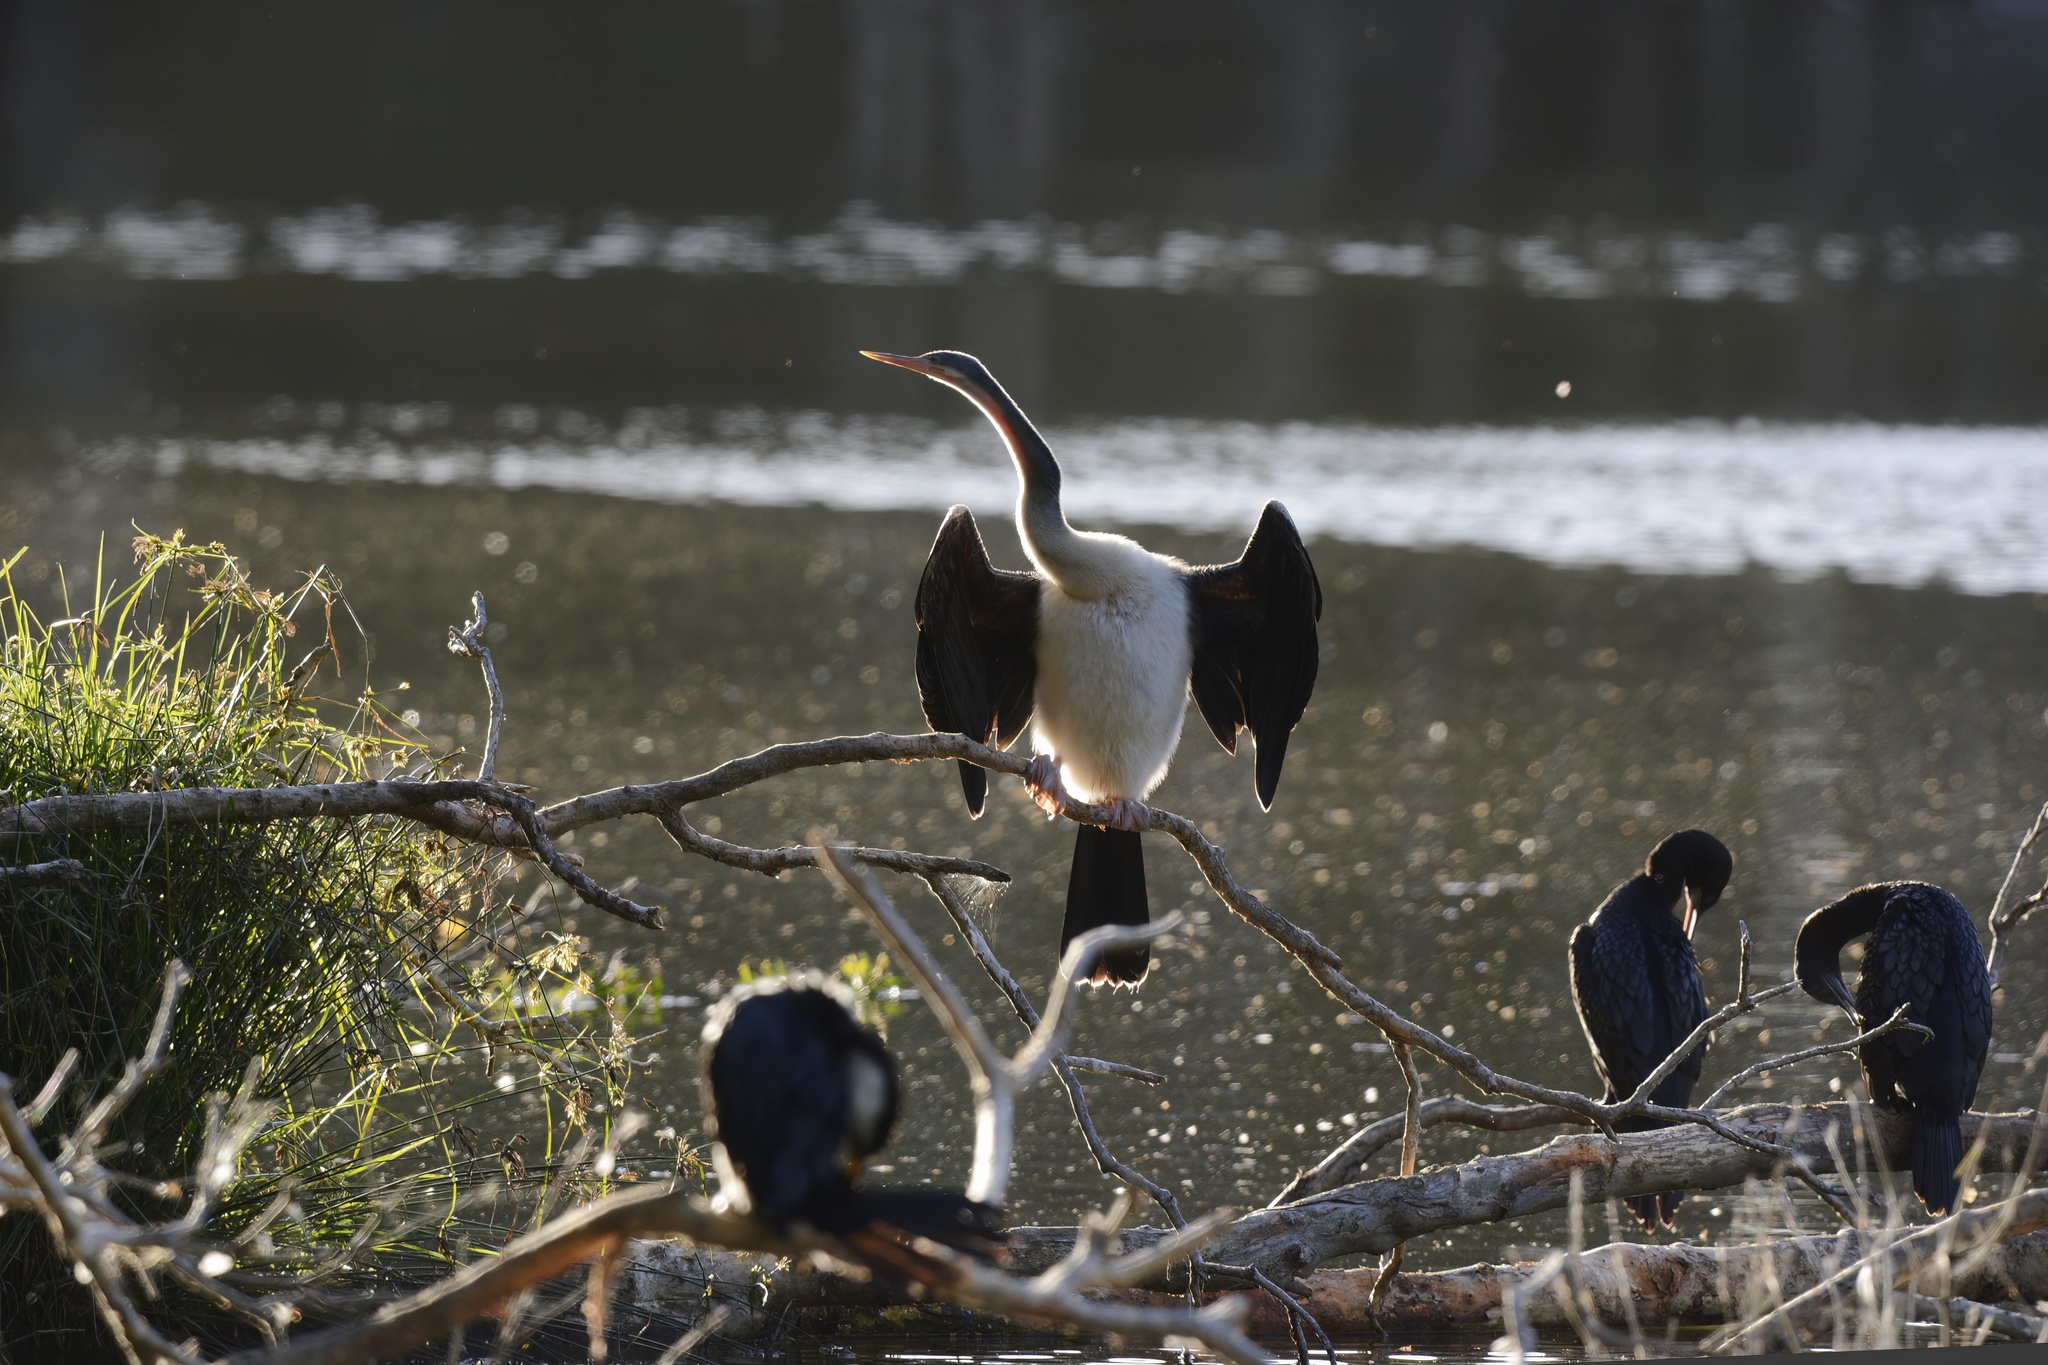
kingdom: Animalia
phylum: Chordata
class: Aves
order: Suliformes
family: Anhingidae
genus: Anhinga
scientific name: Anhinga novaehollandiae
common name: Australasian darter
